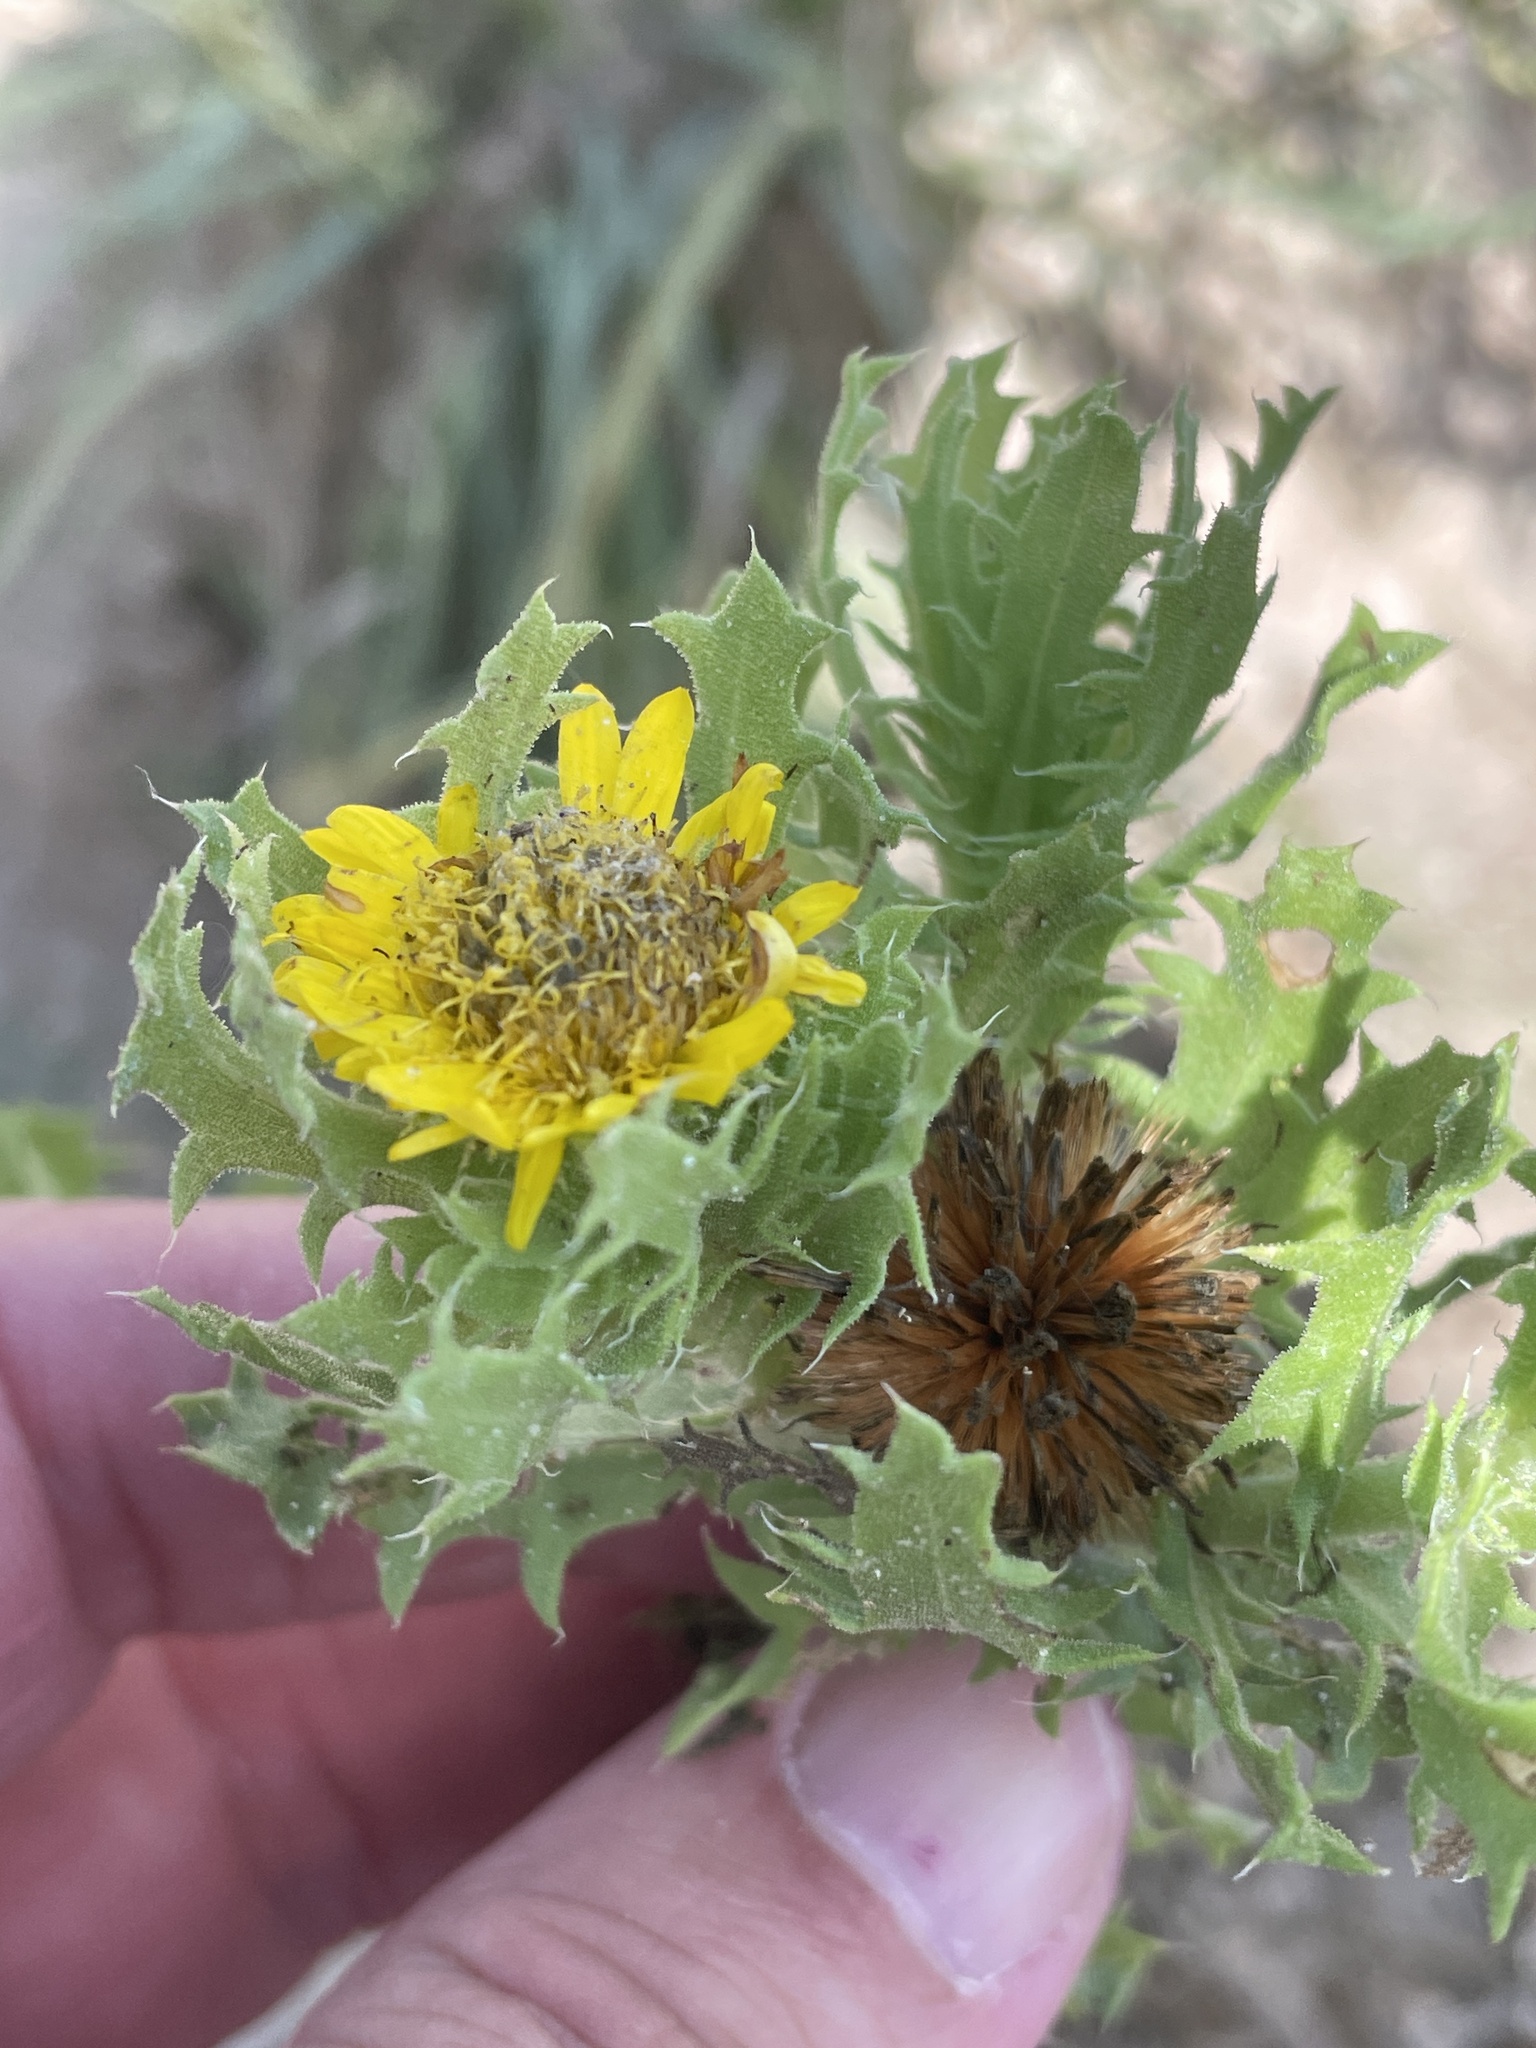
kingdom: Plantae
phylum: Tracheophyta
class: Magnoliopsida
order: Asterales
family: Asteraceae
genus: Rayjacksonia
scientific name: Rayjacksonia phyllocephala
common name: Gulf coast camphor daisy
